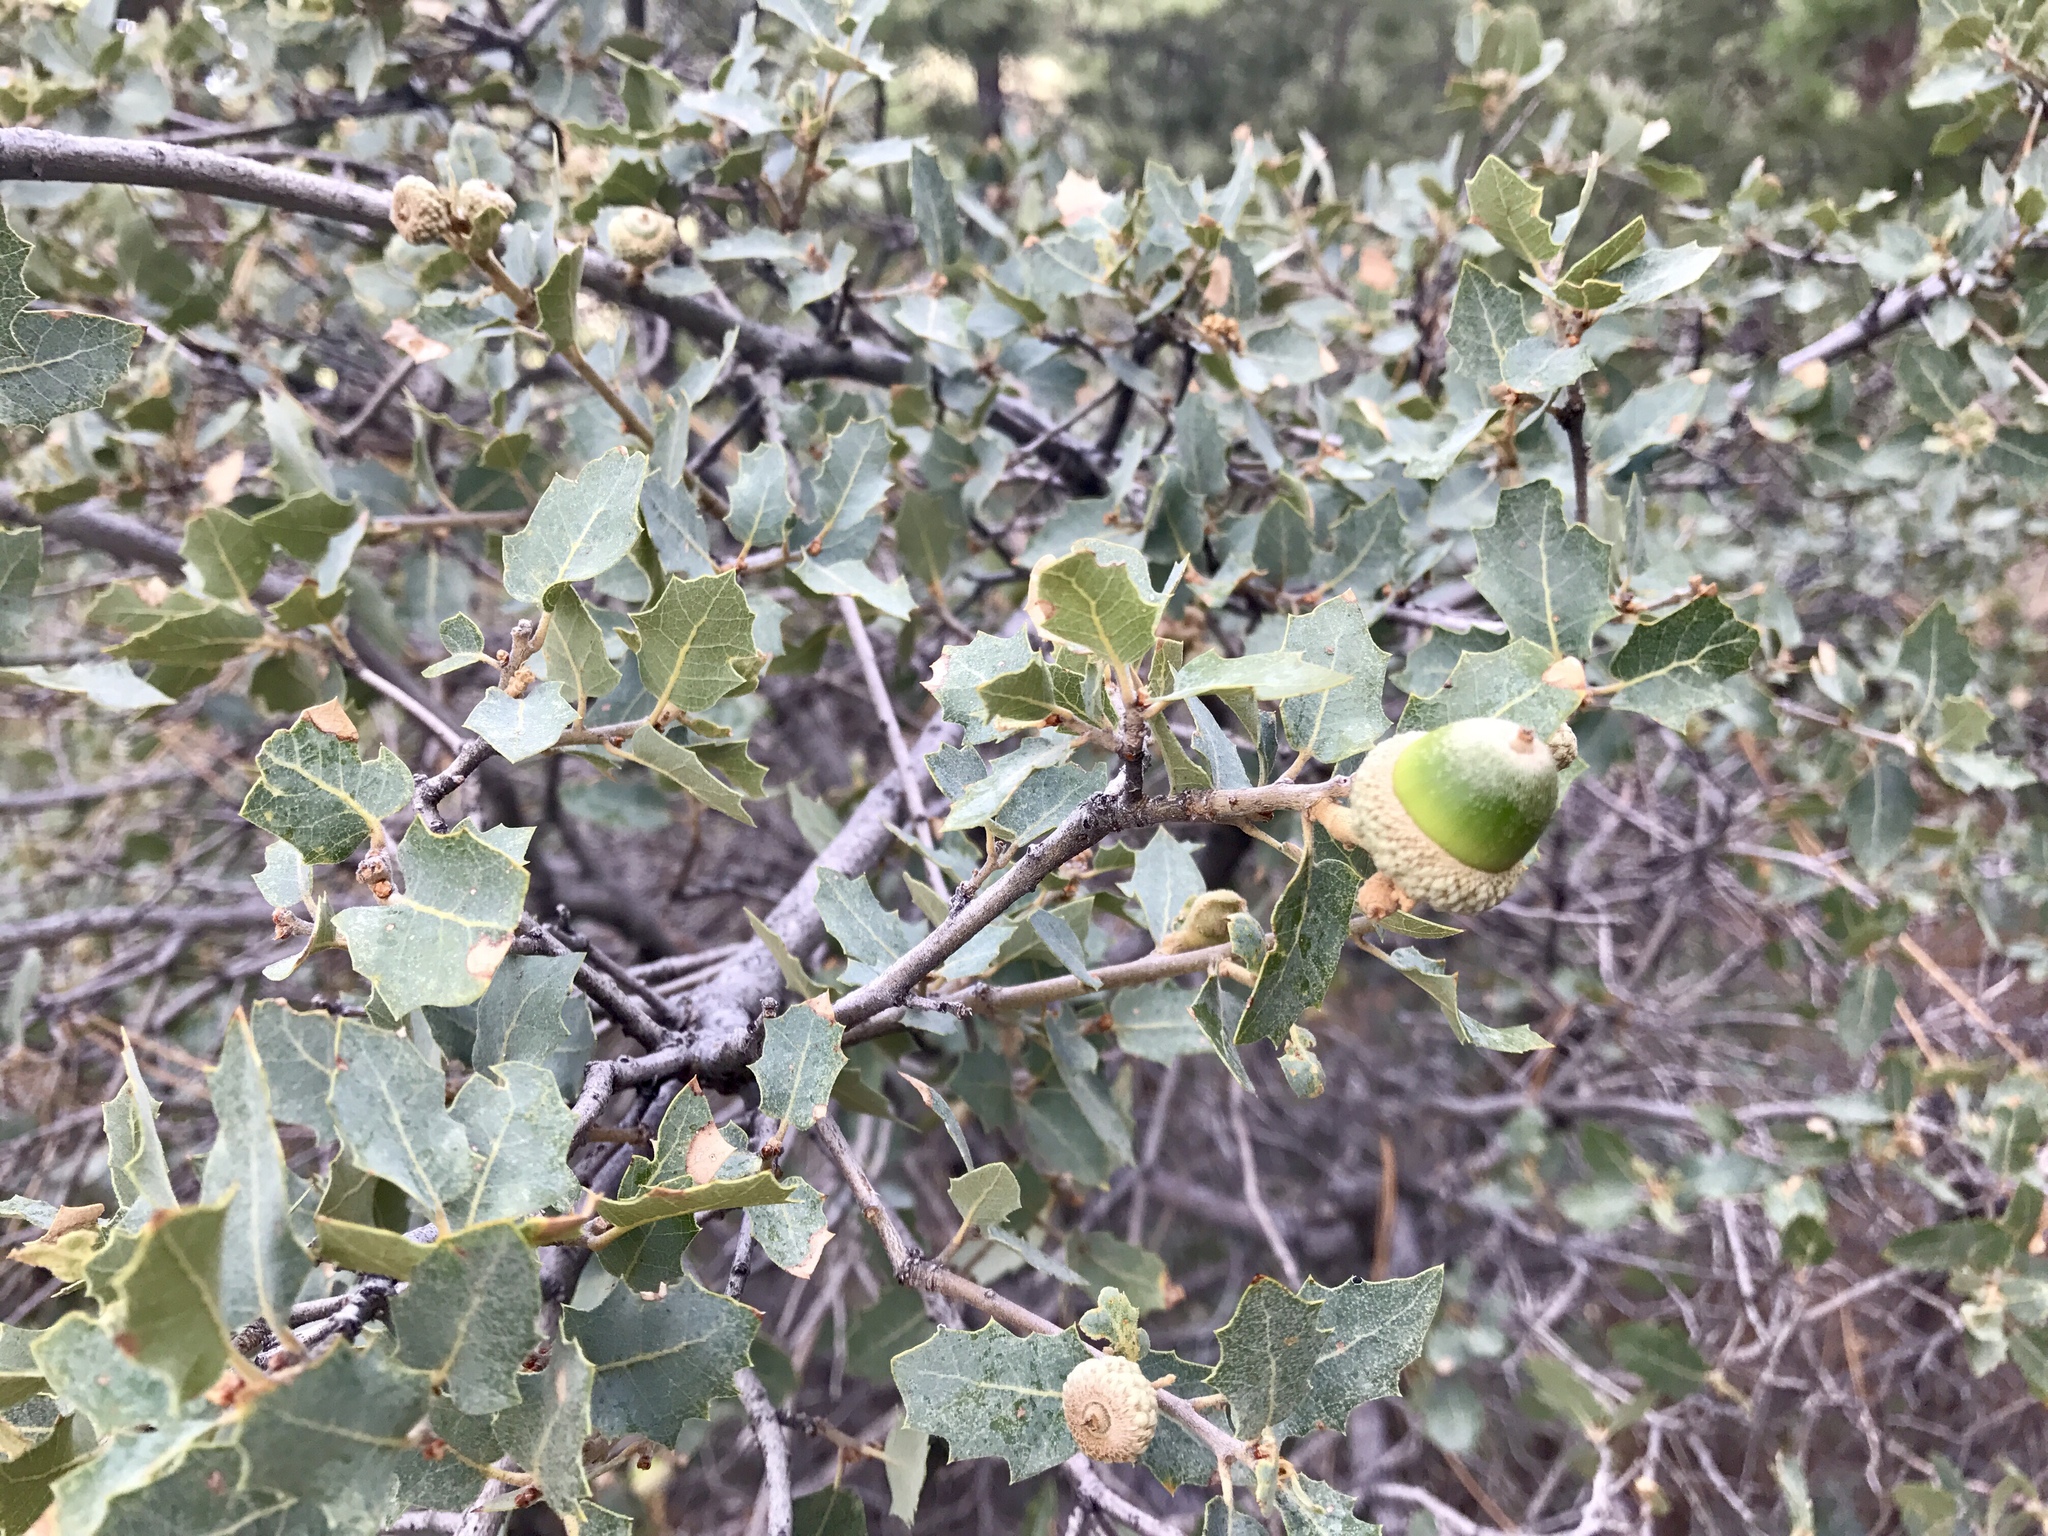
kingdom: Plantae
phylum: Tracheophyta
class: Magnoliopsida
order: Fagales
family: Fagaceae
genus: Quercus
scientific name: Quercus turbinella
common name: Sonoran scrub oak
